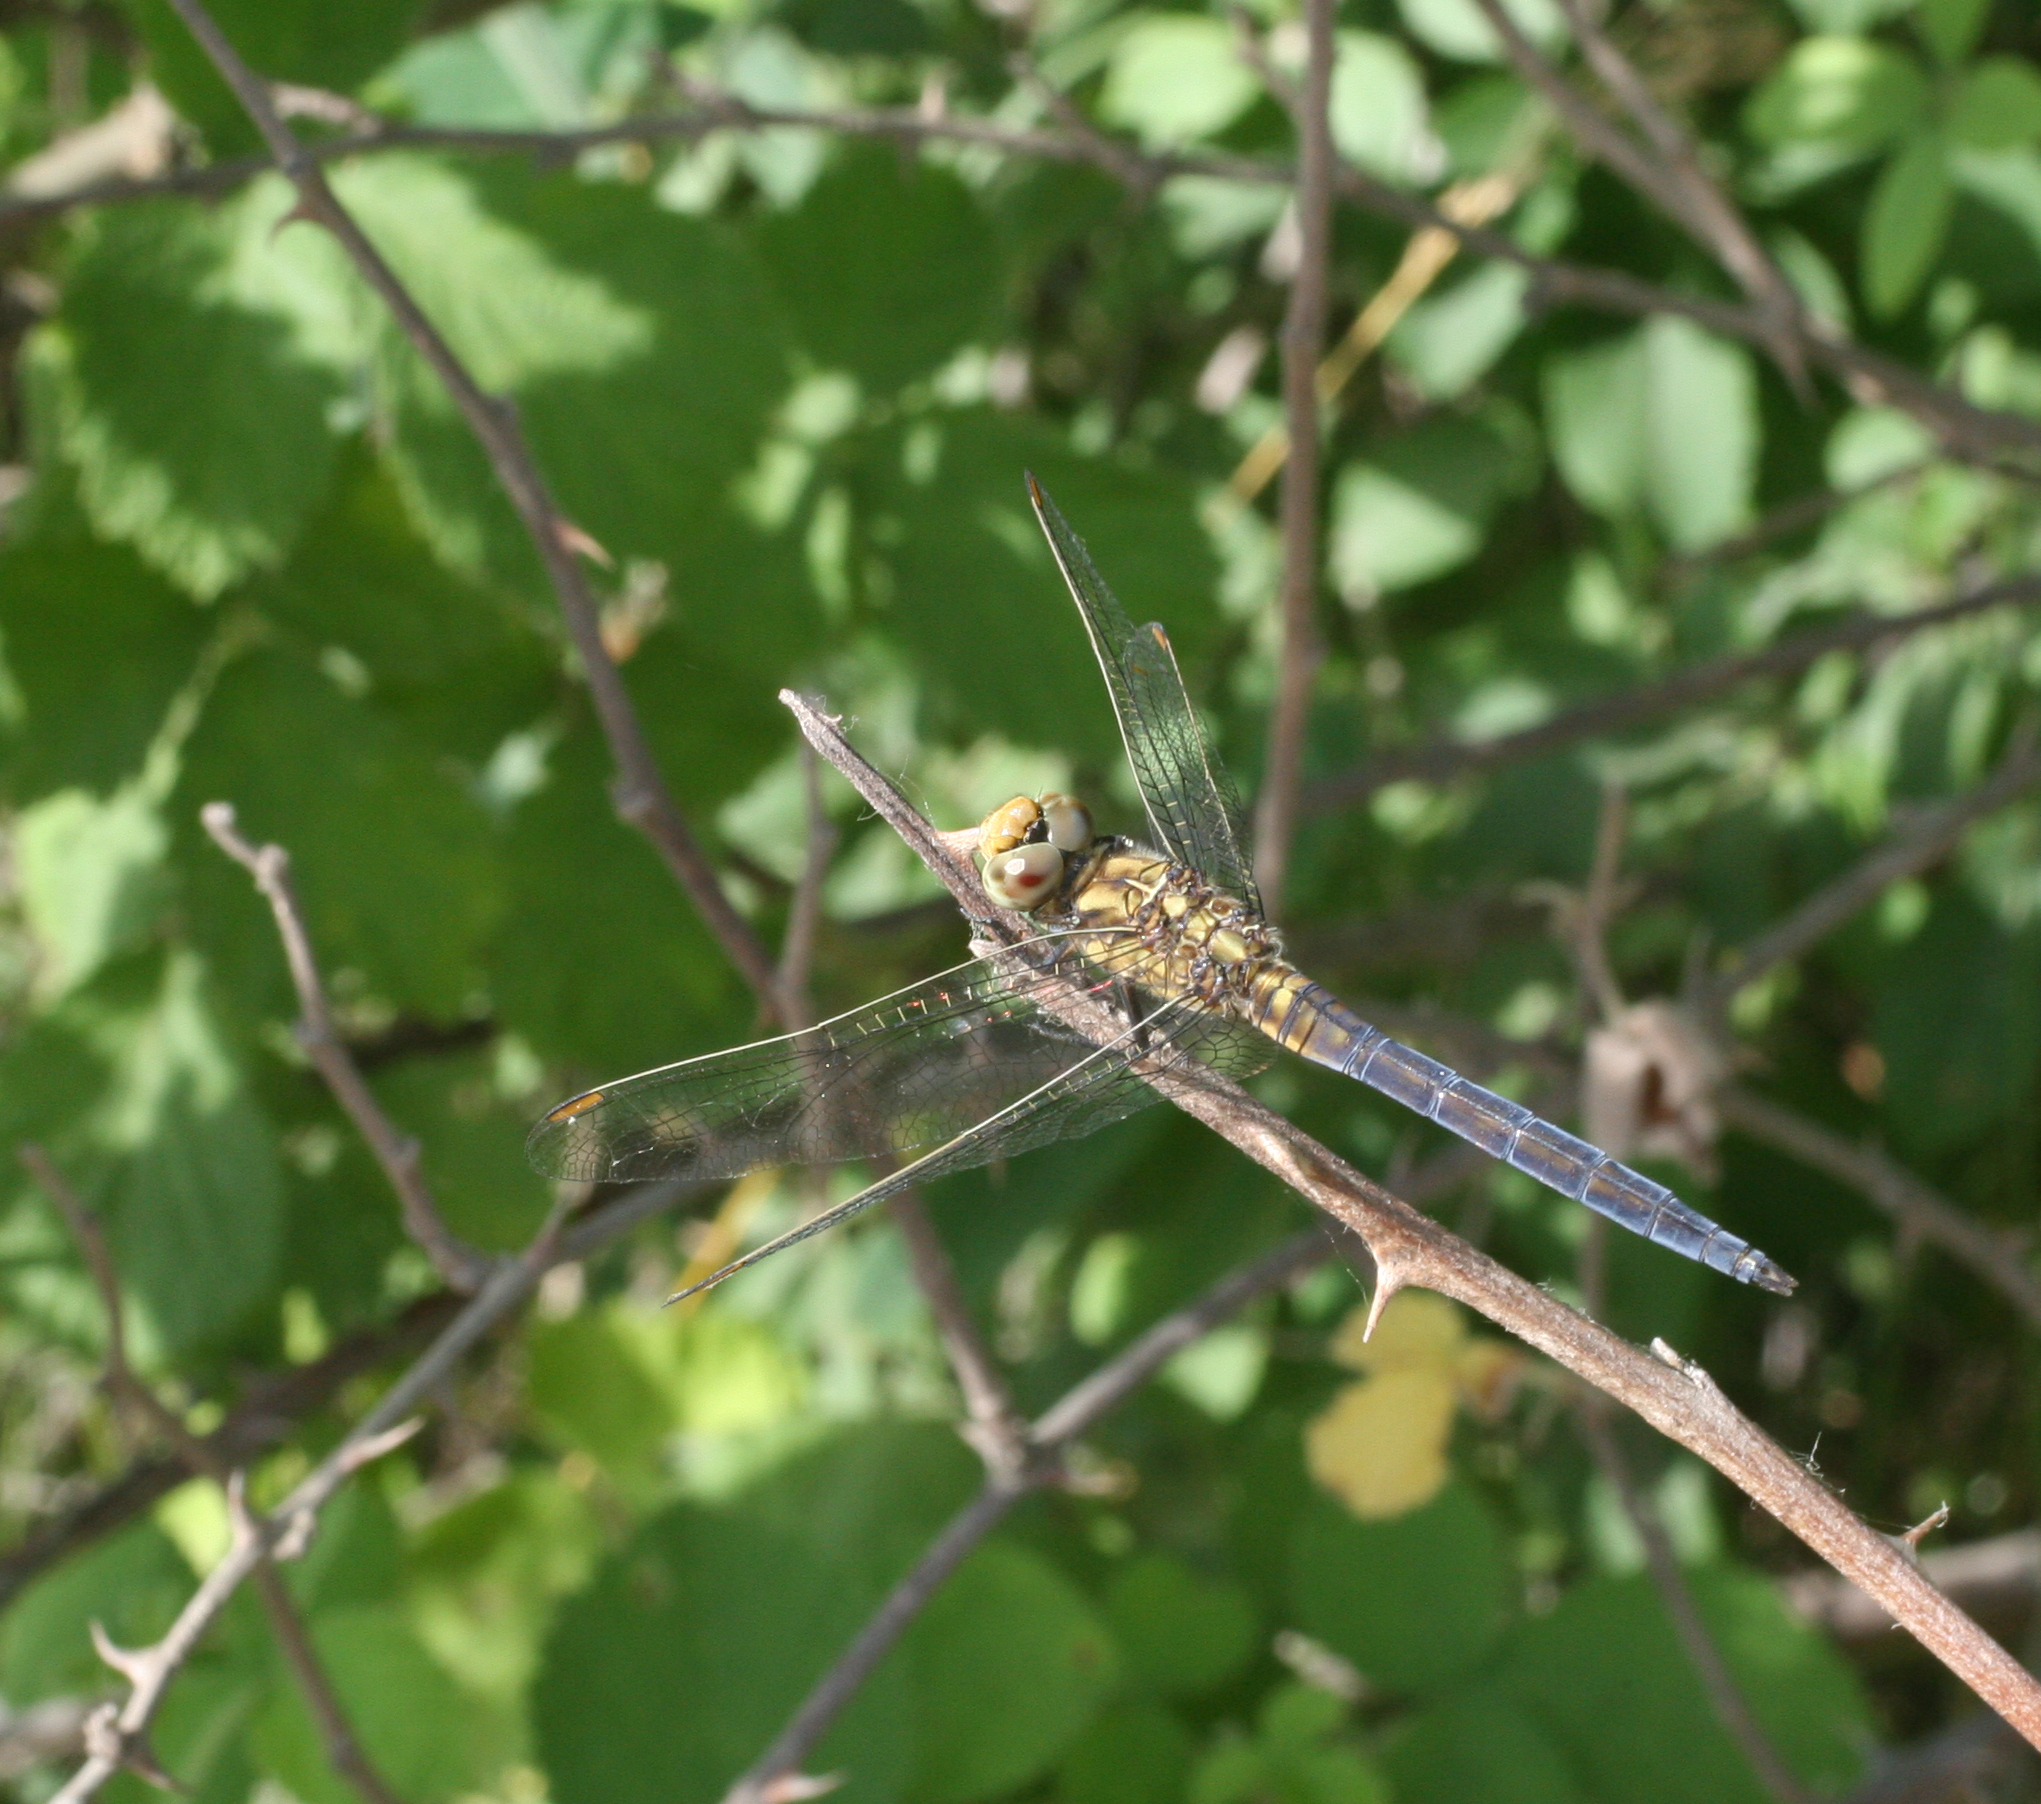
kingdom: Animalia
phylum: Arthropoda
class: Insecta
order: Odonata
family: Libellulidae
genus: Orthetrum
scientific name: Orthetrum coerulescens
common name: Keeled skimmer
